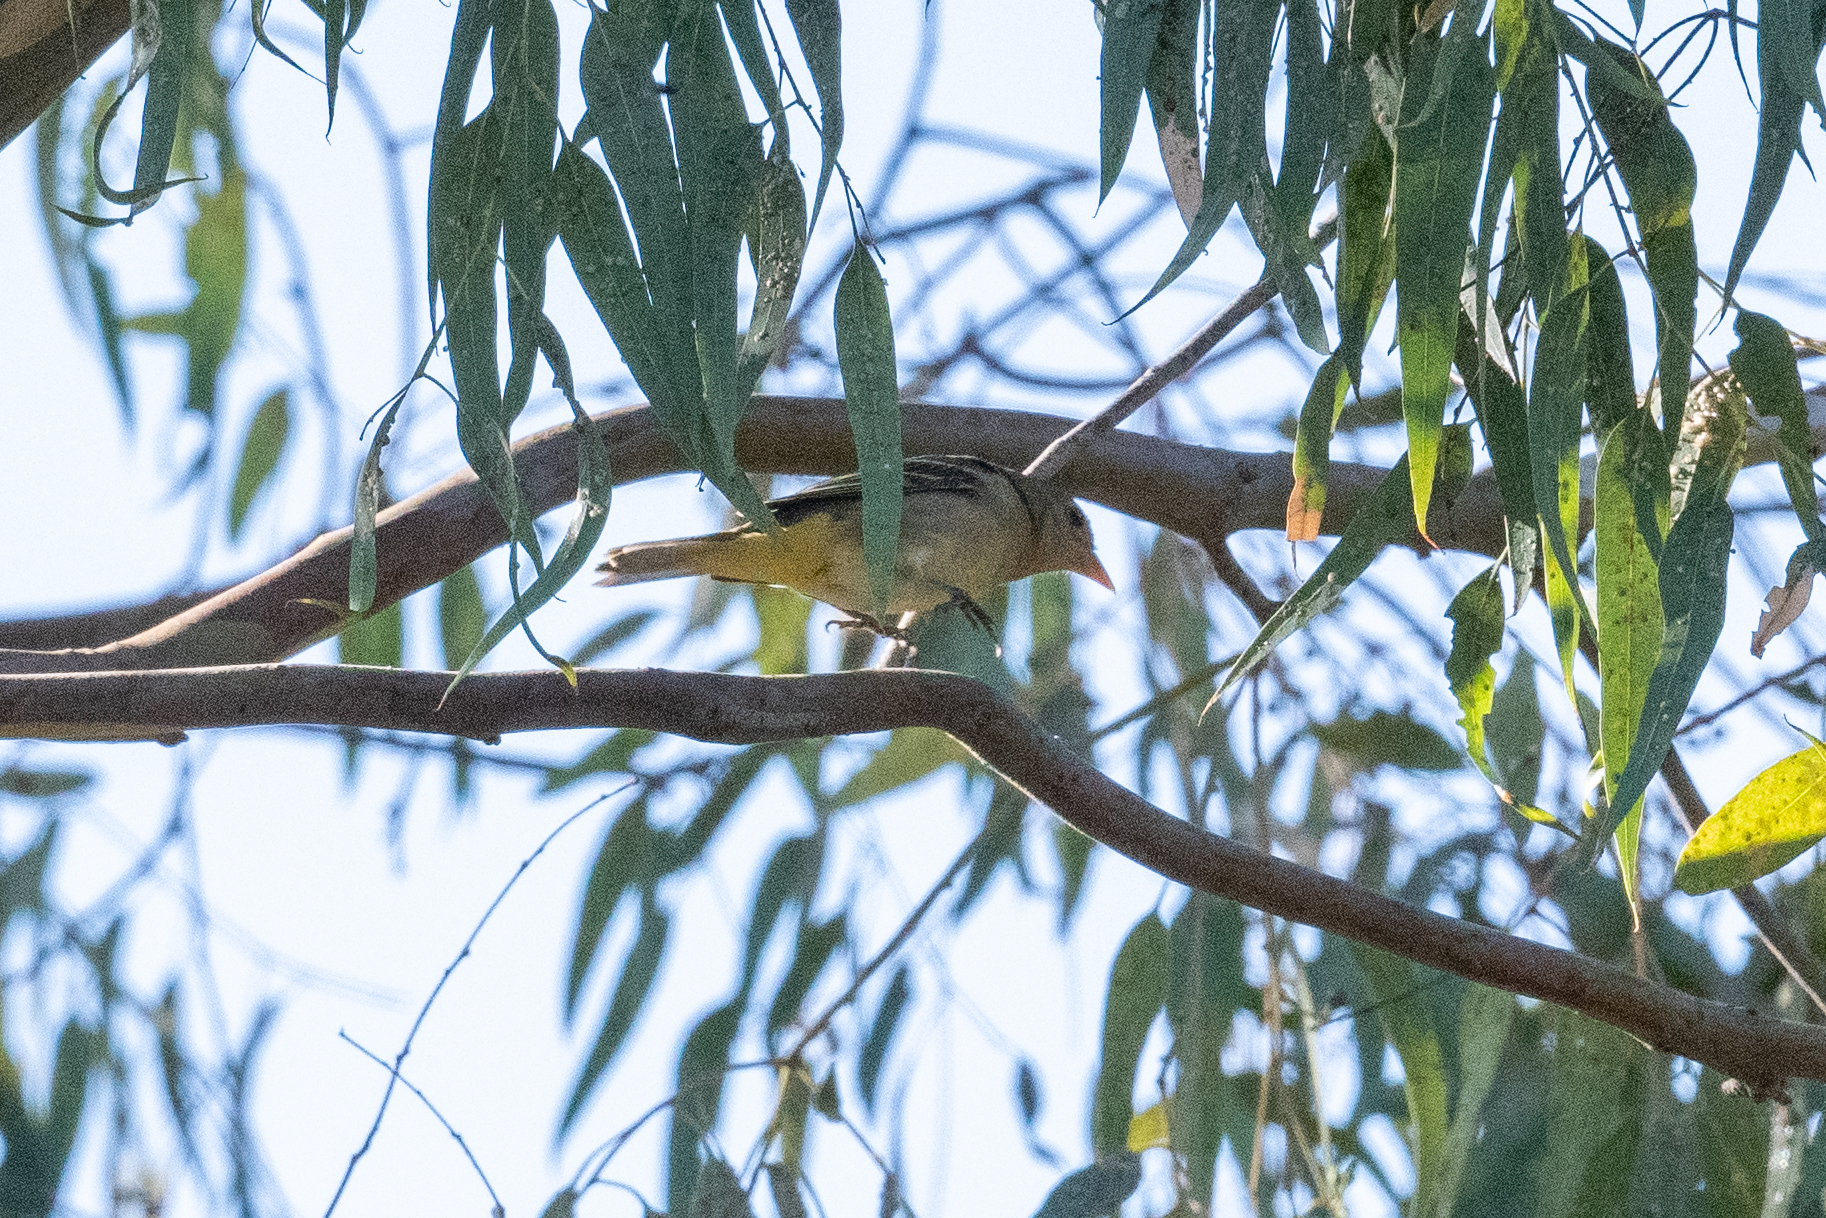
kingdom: Animalia
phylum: Chordata
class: Aves
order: Passeriformes
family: Cardinalidae
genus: Piranga
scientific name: Piranga ludoviciana
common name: Western tanager
